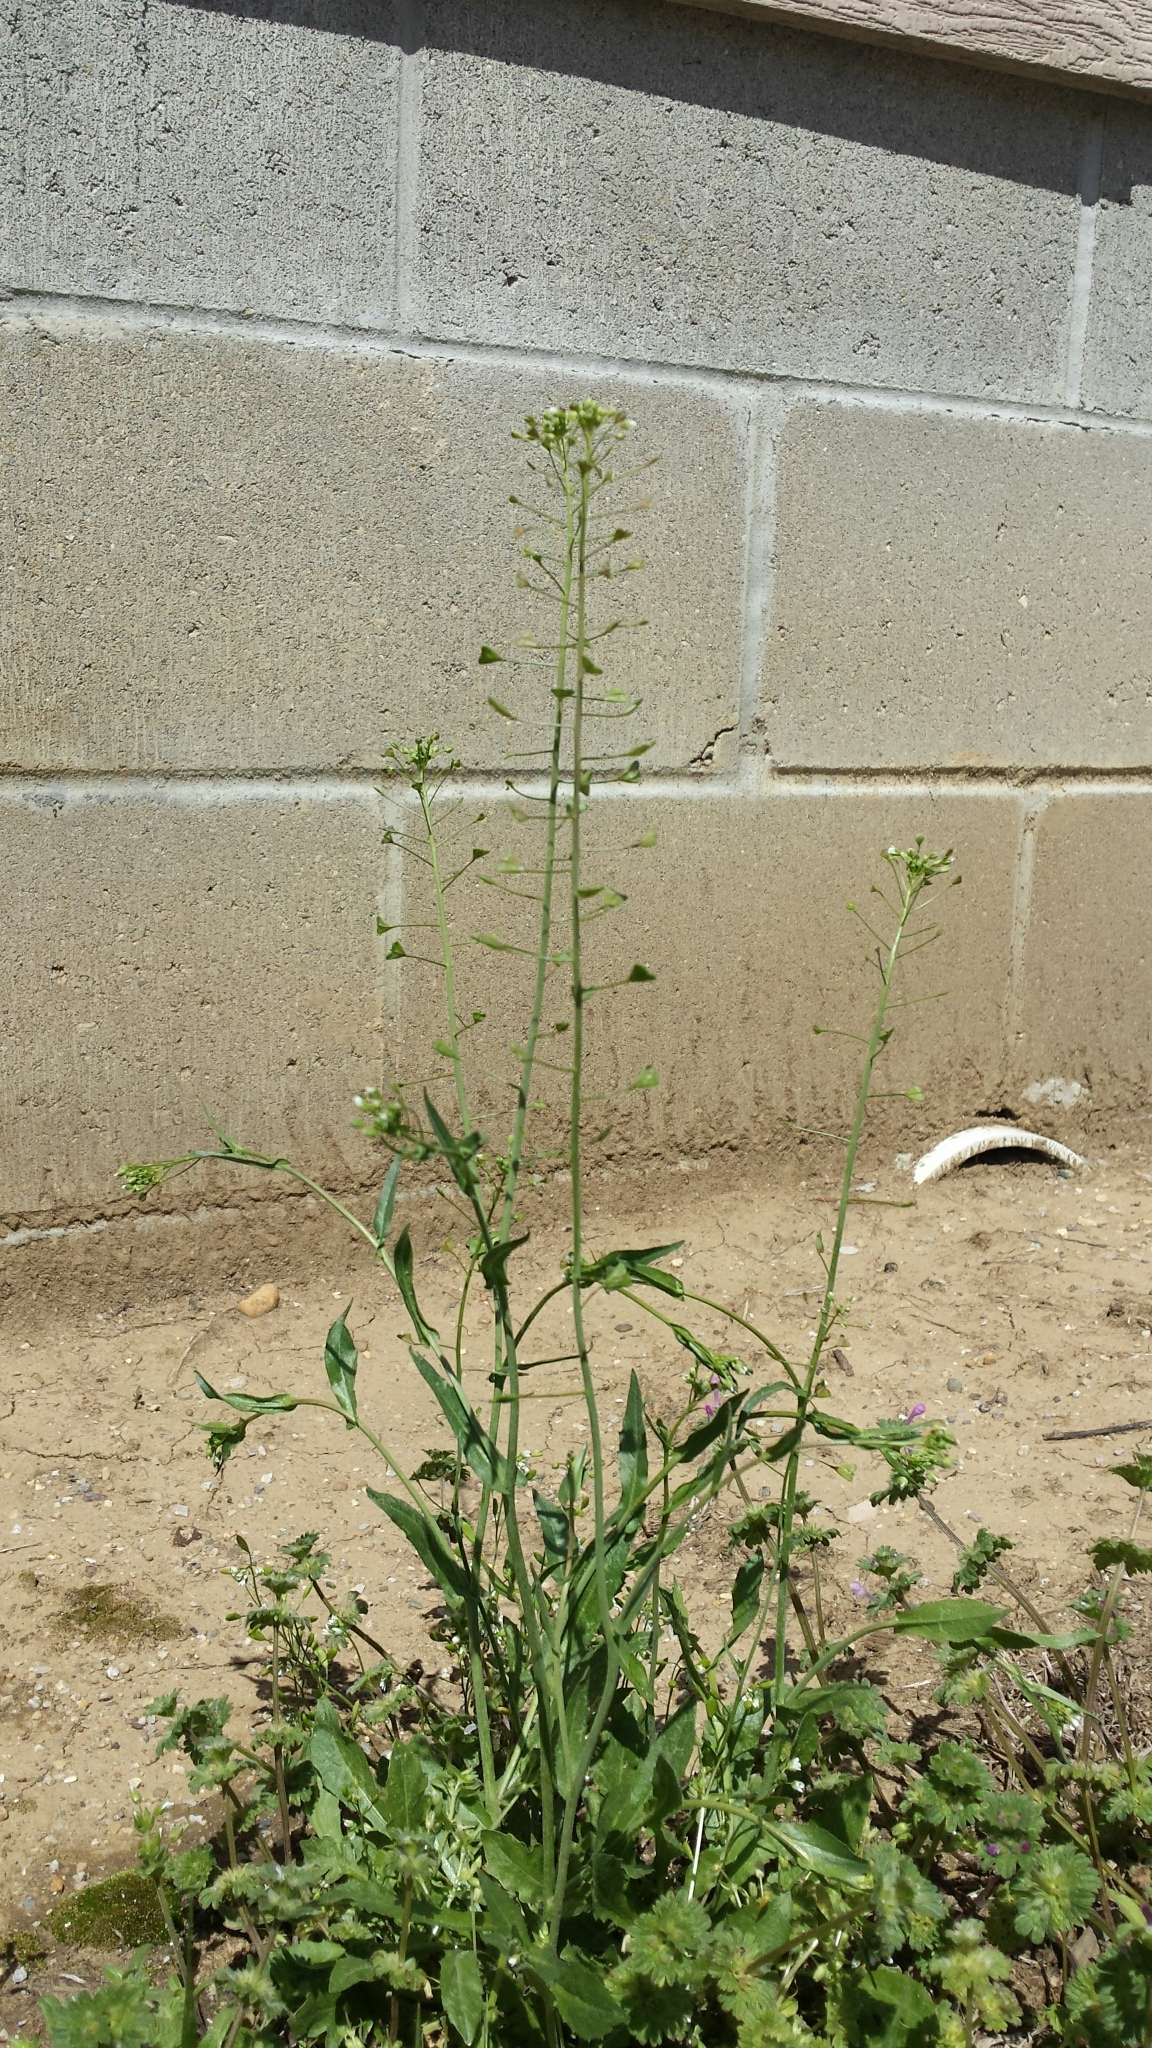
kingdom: Plantae
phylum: Tracheophyta
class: Magnoliopsida
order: Brassicales
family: Brassicaceae
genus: Capsella
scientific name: Capsella bursa-pastoris
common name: Shepherd's purse
